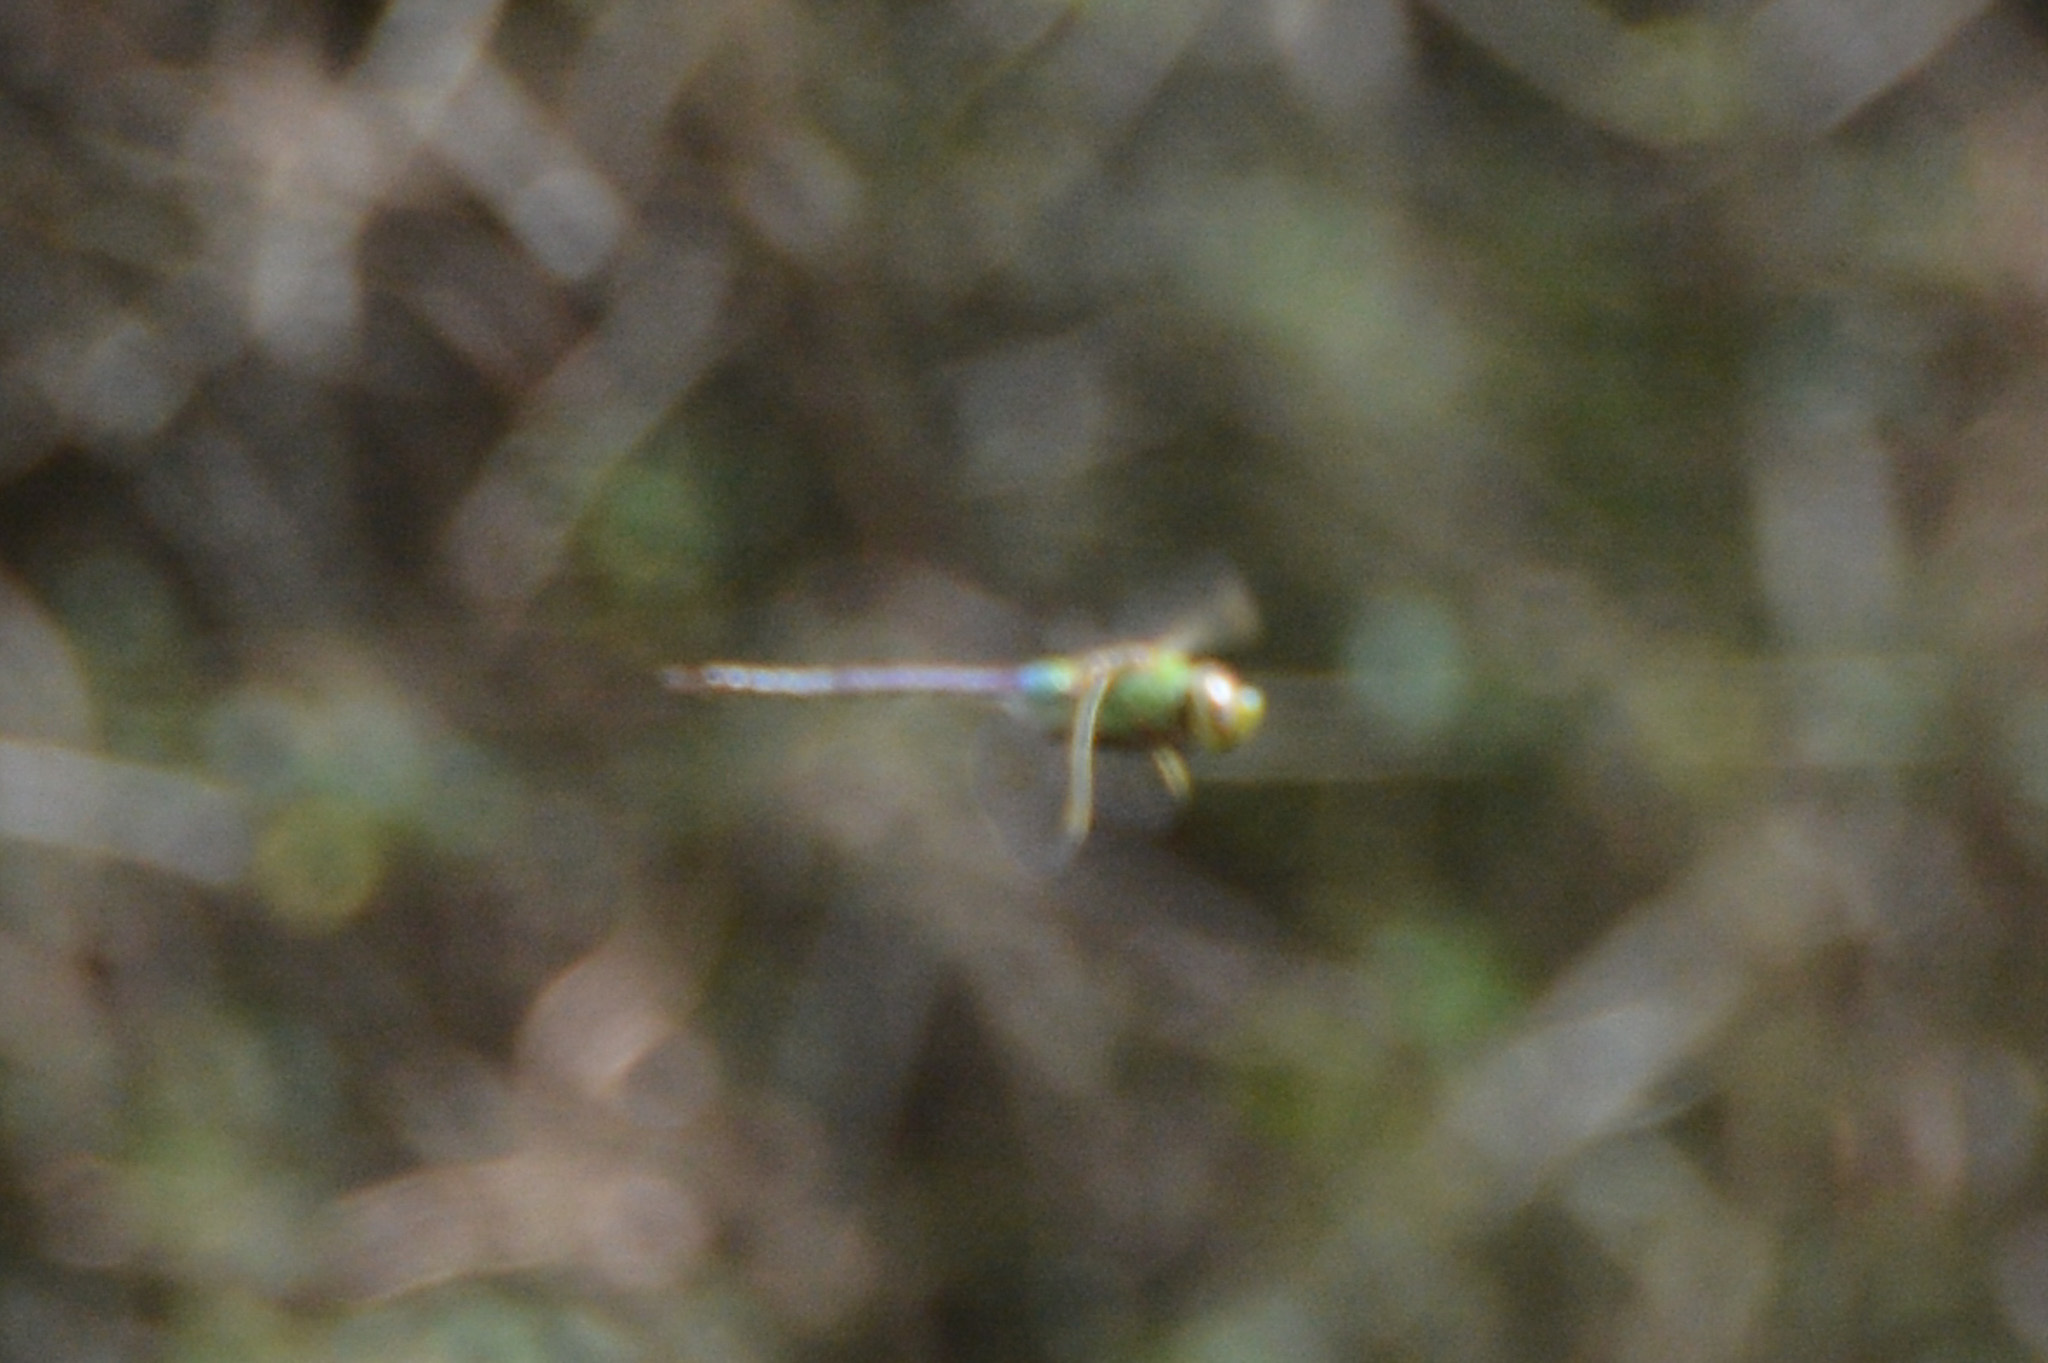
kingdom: Animalia
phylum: Arthropoda
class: Insecta
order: Odonata
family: Aeshnidae
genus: Anax
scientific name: Anax junius
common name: Common green darner
